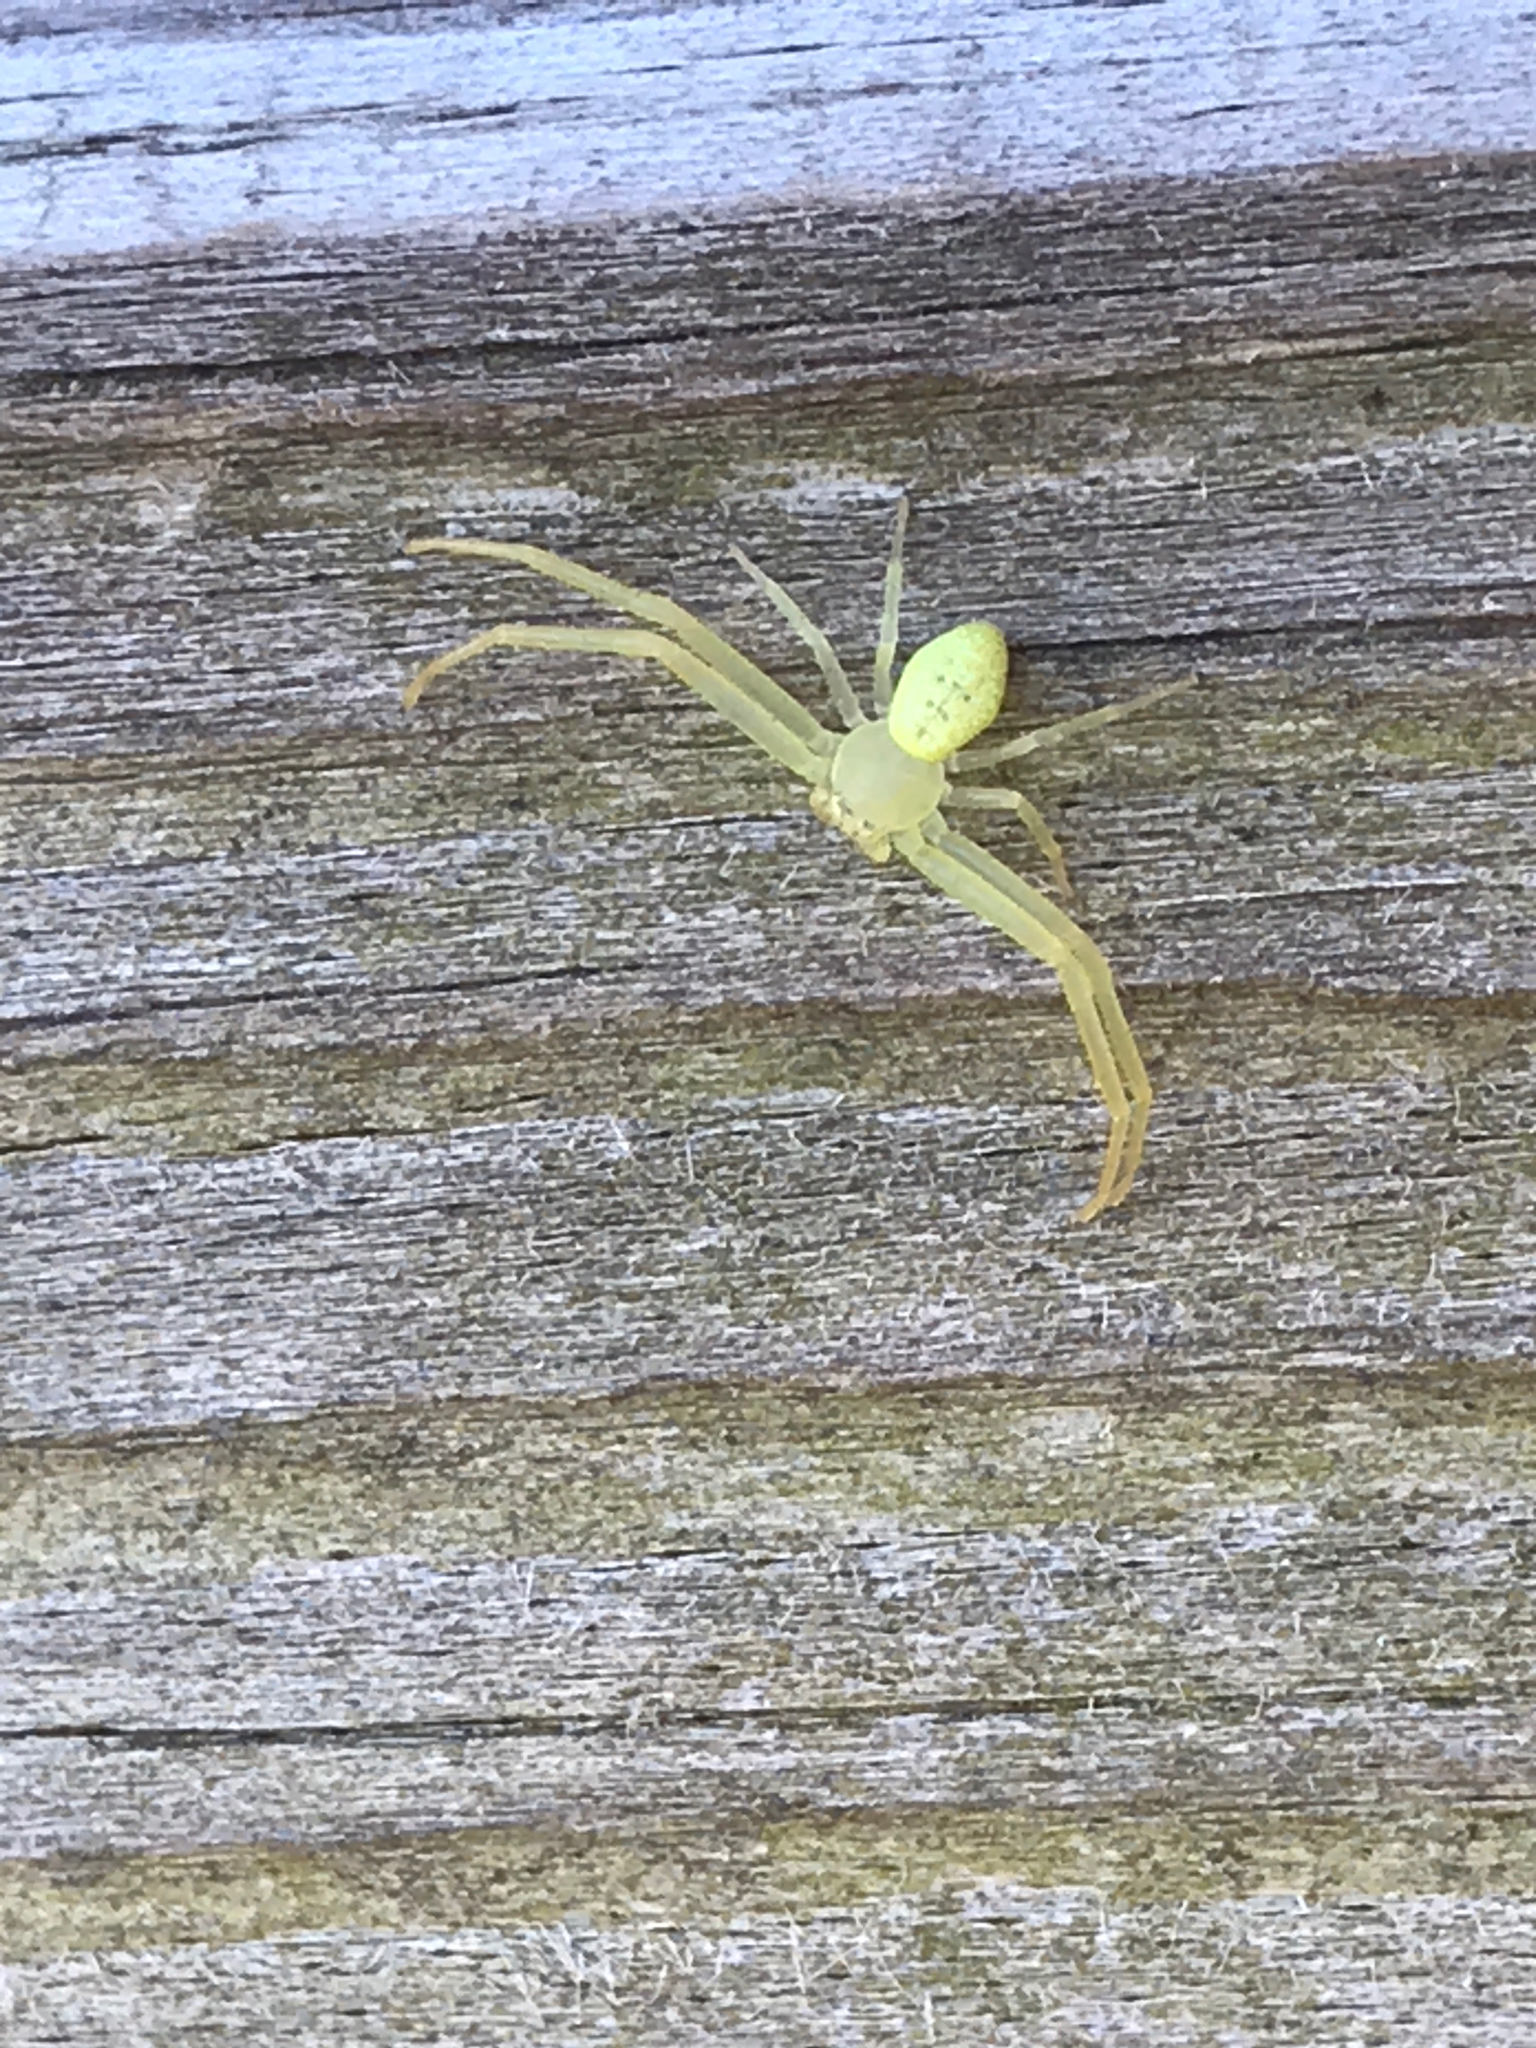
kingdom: Animalia
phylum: Arthropoda
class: Arachnida
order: Araneae
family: Thomisidae
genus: Misumessus
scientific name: Misumessus oblongus
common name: American green crab spider
